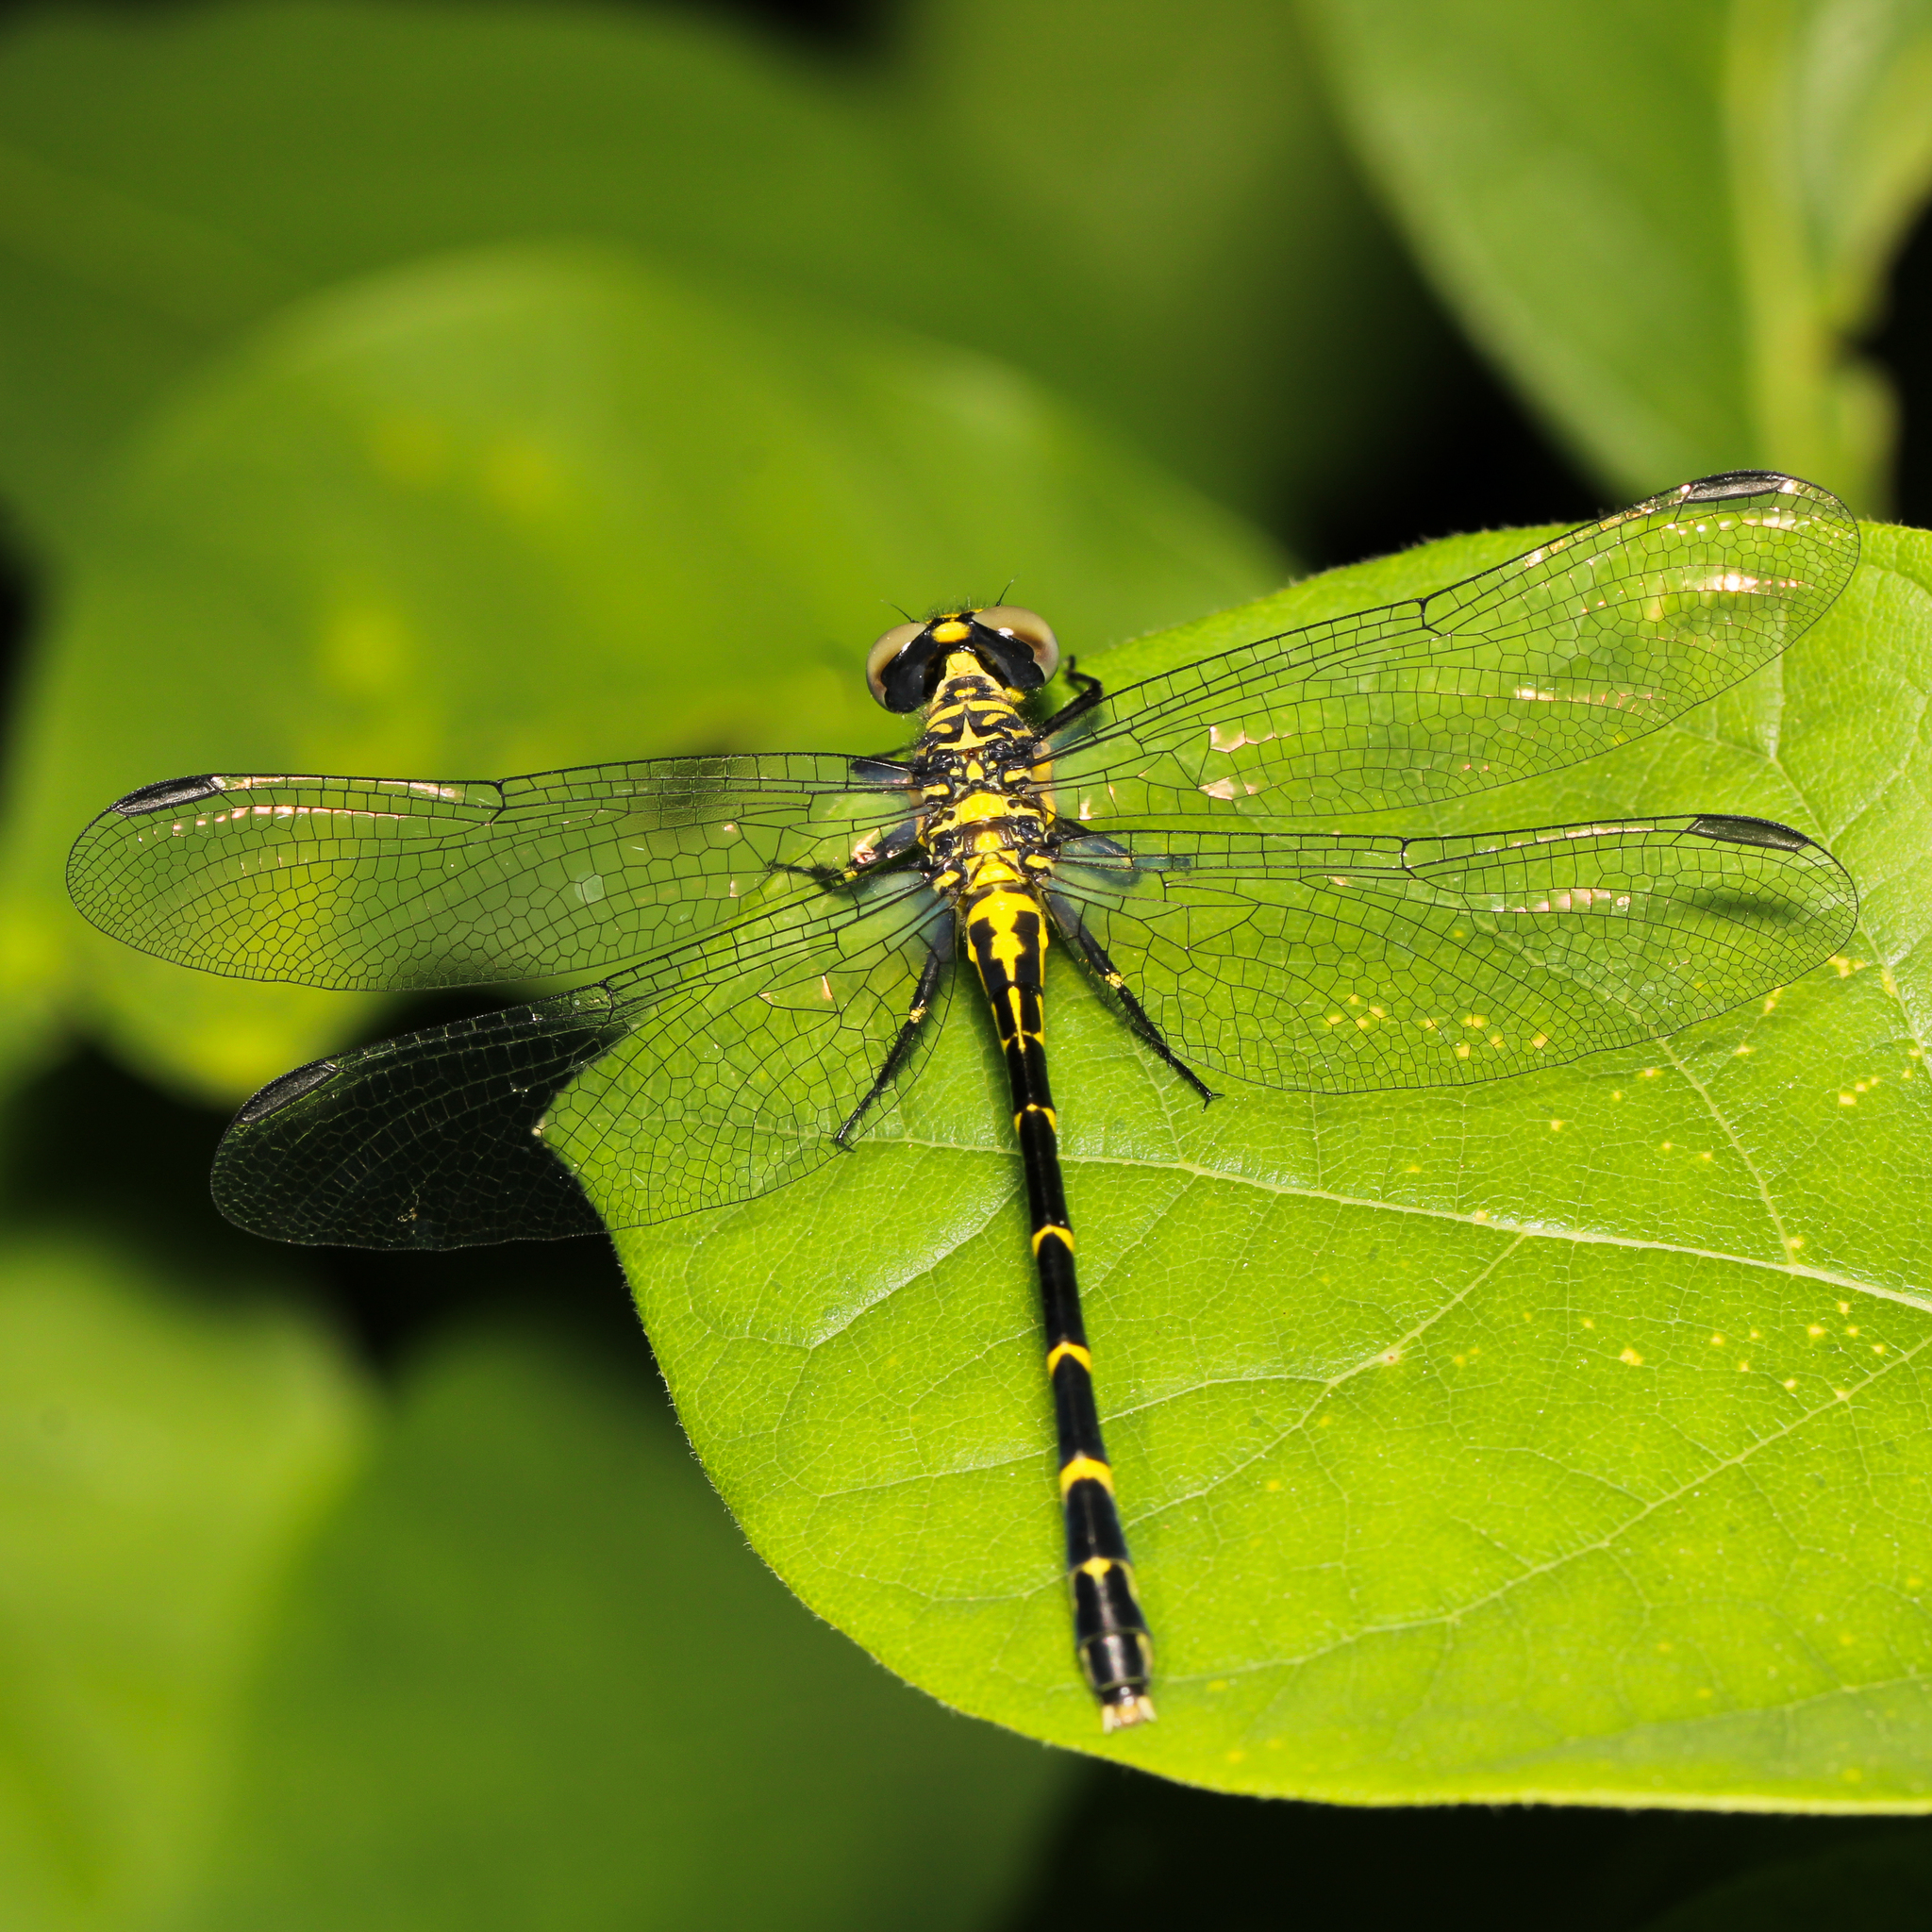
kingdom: Animalia
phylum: Arthropoda
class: Insecta
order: Odonata
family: Gomphidae
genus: Stylogomphus
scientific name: Stylogomphus albistylus
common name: Eastern least clubtail
